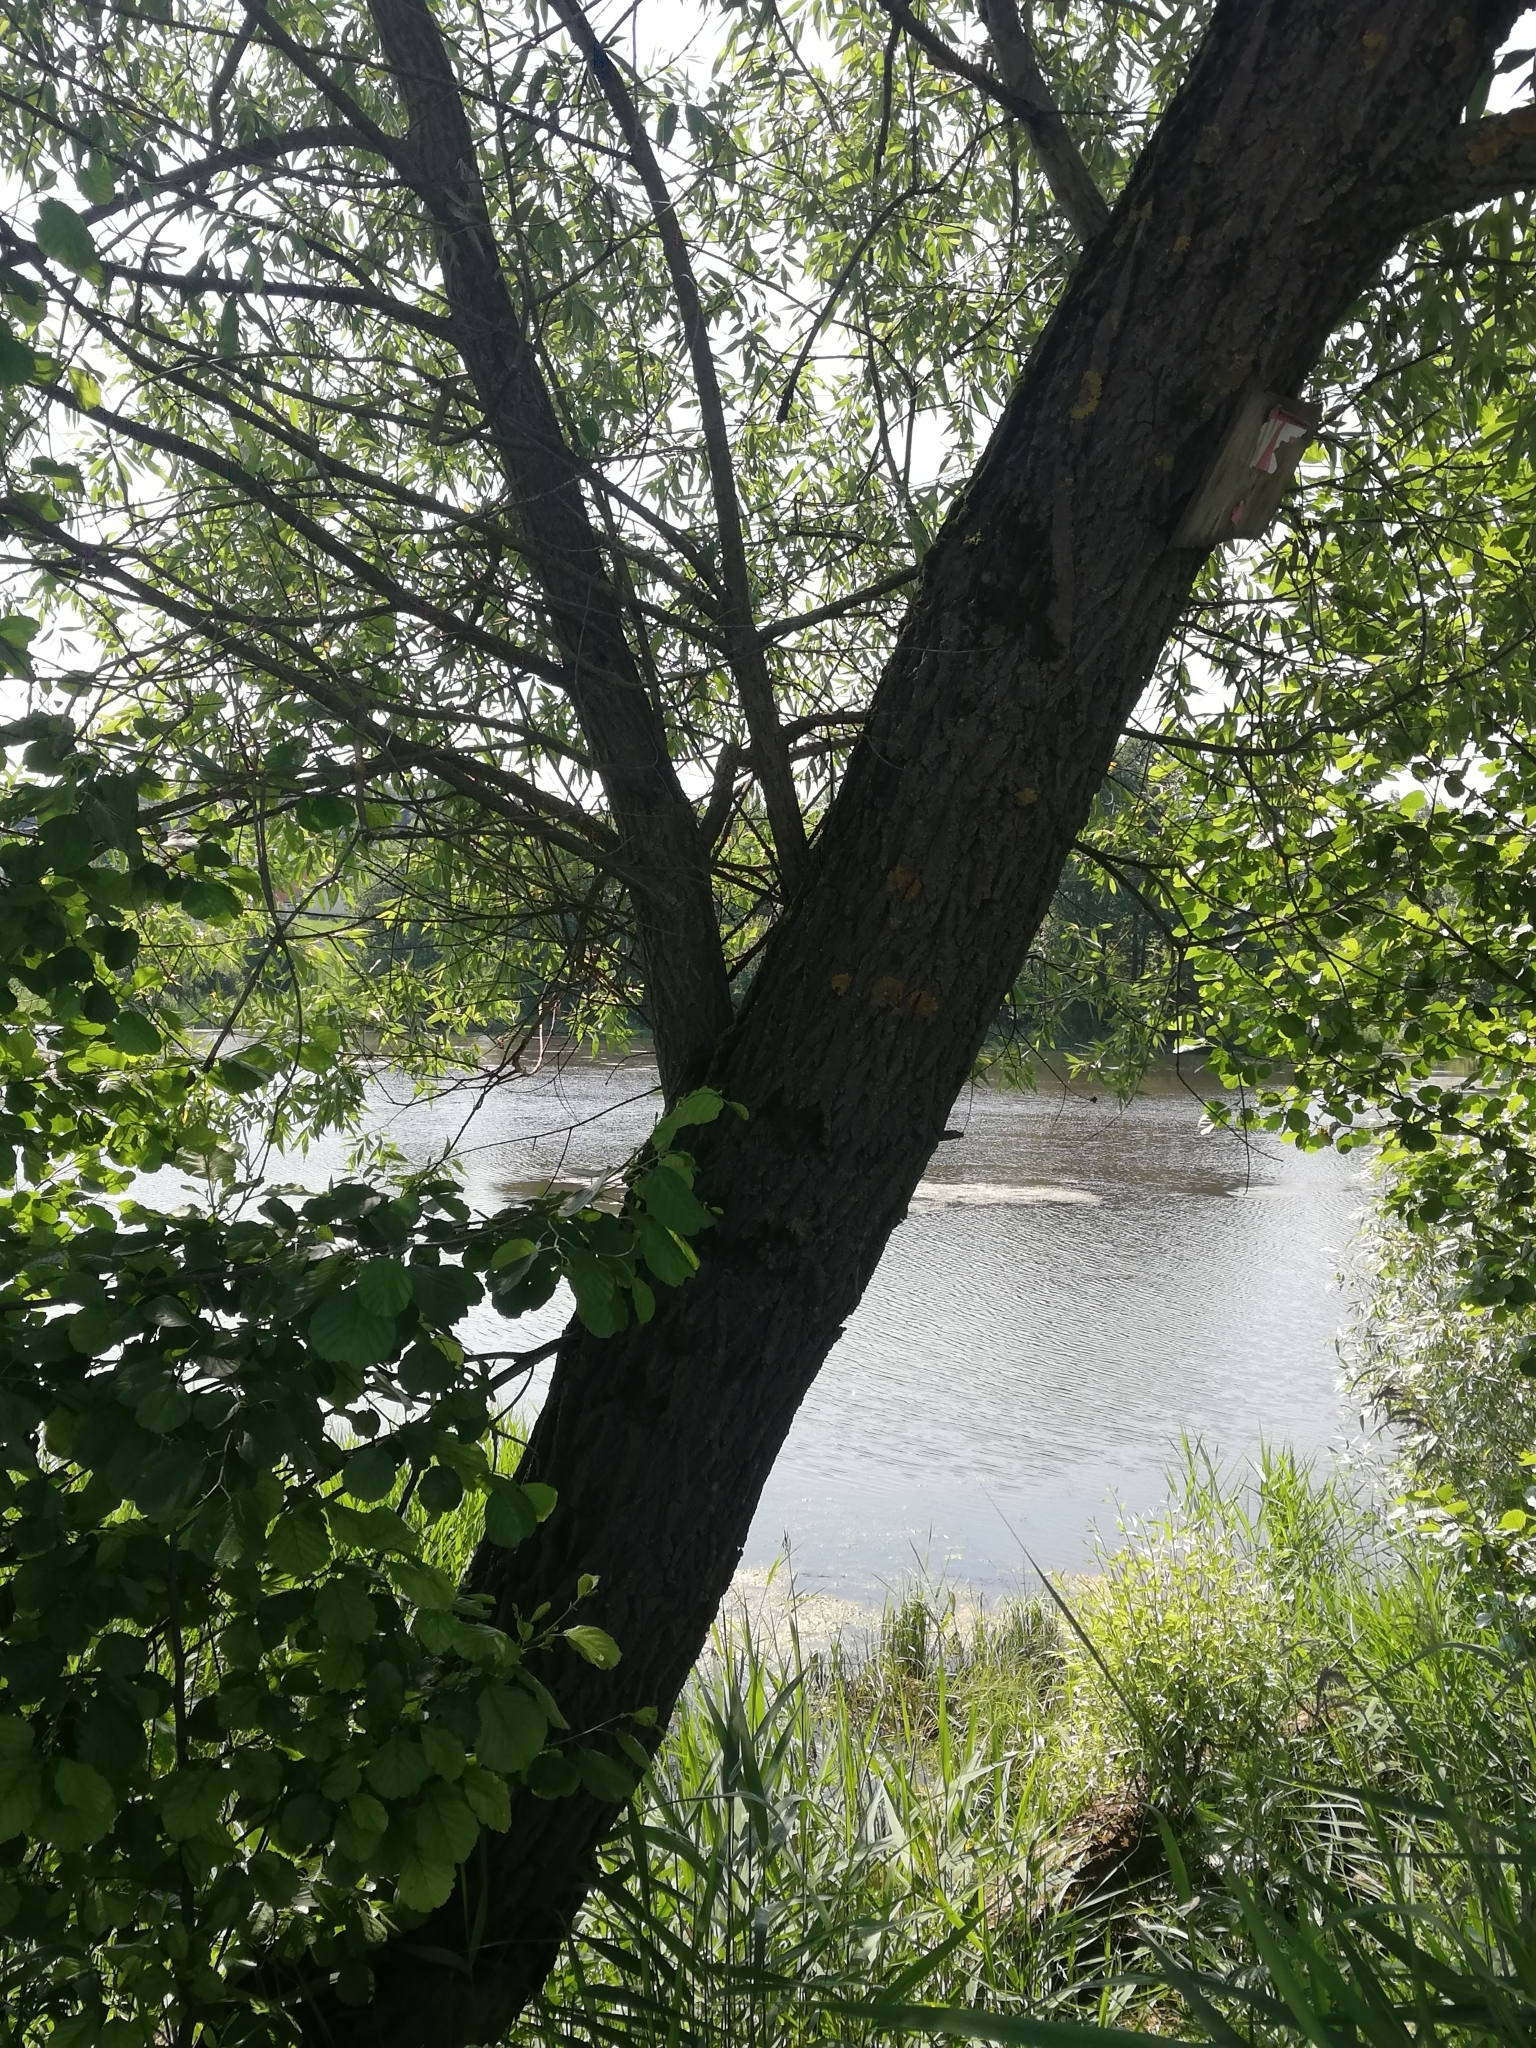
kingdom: Plantae
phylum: Tracheophyta
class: Magnoliopsida
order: Malpighiales
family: Salicaceae
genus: Salix
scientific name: Salix alba
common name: White willow
